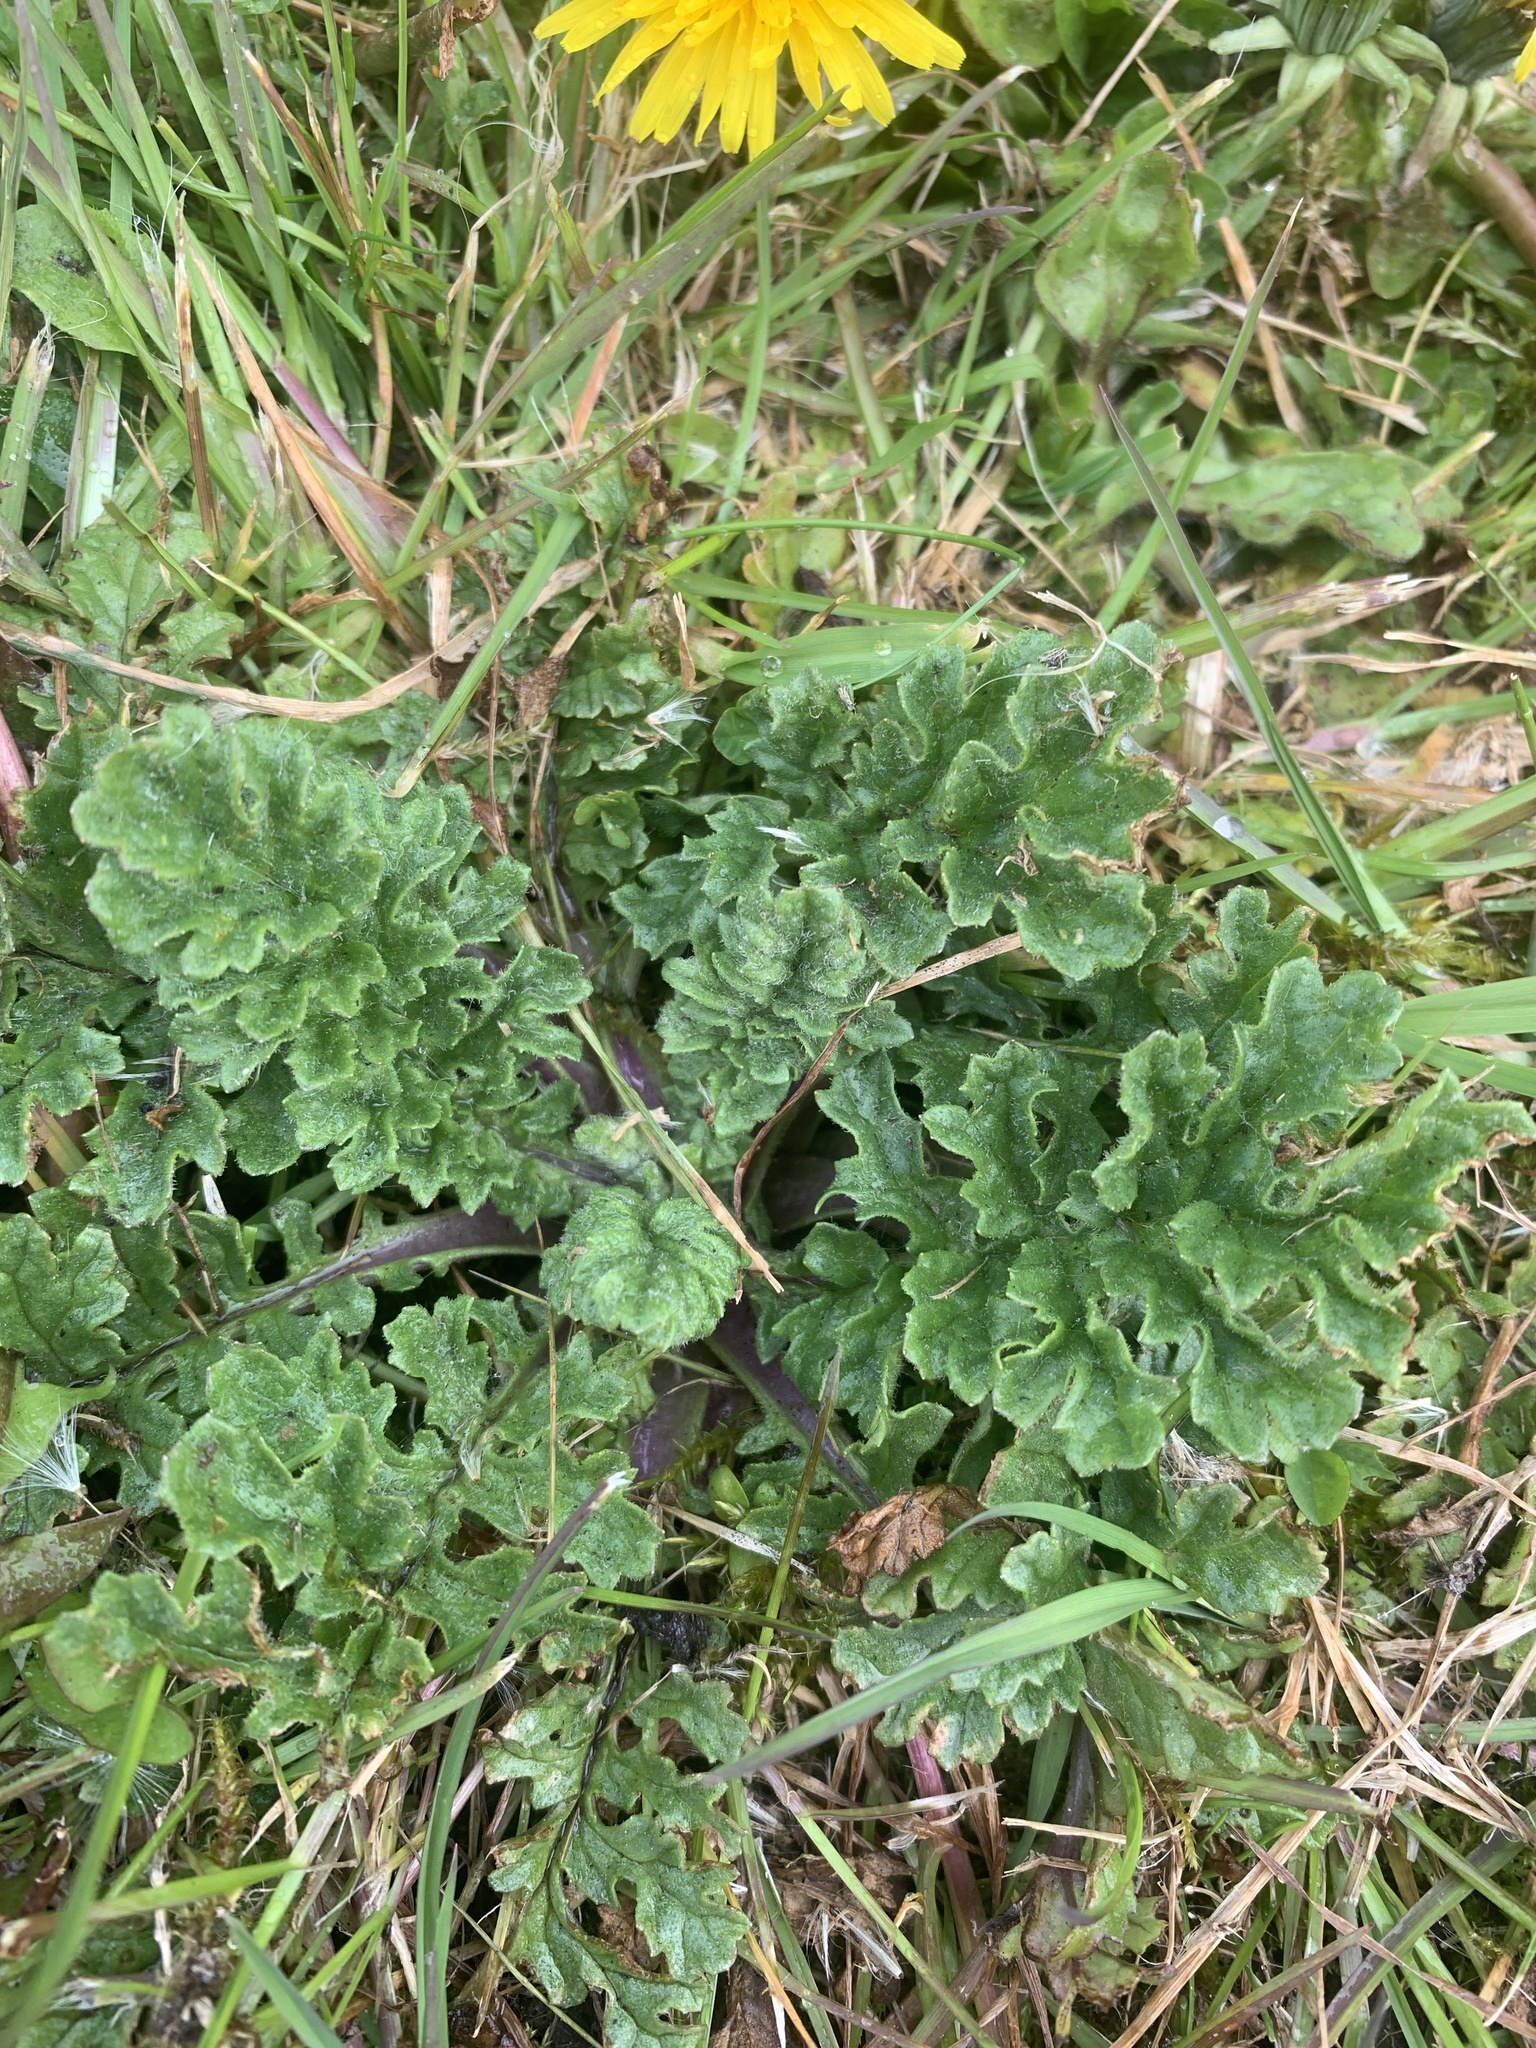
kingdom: Plantae
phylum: Tracheophyta
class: Magnoliopsida
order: Asterales
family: Asteraceae
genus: Jacobaea
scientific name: Jacobaea vulgaris
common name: Stinking willie
